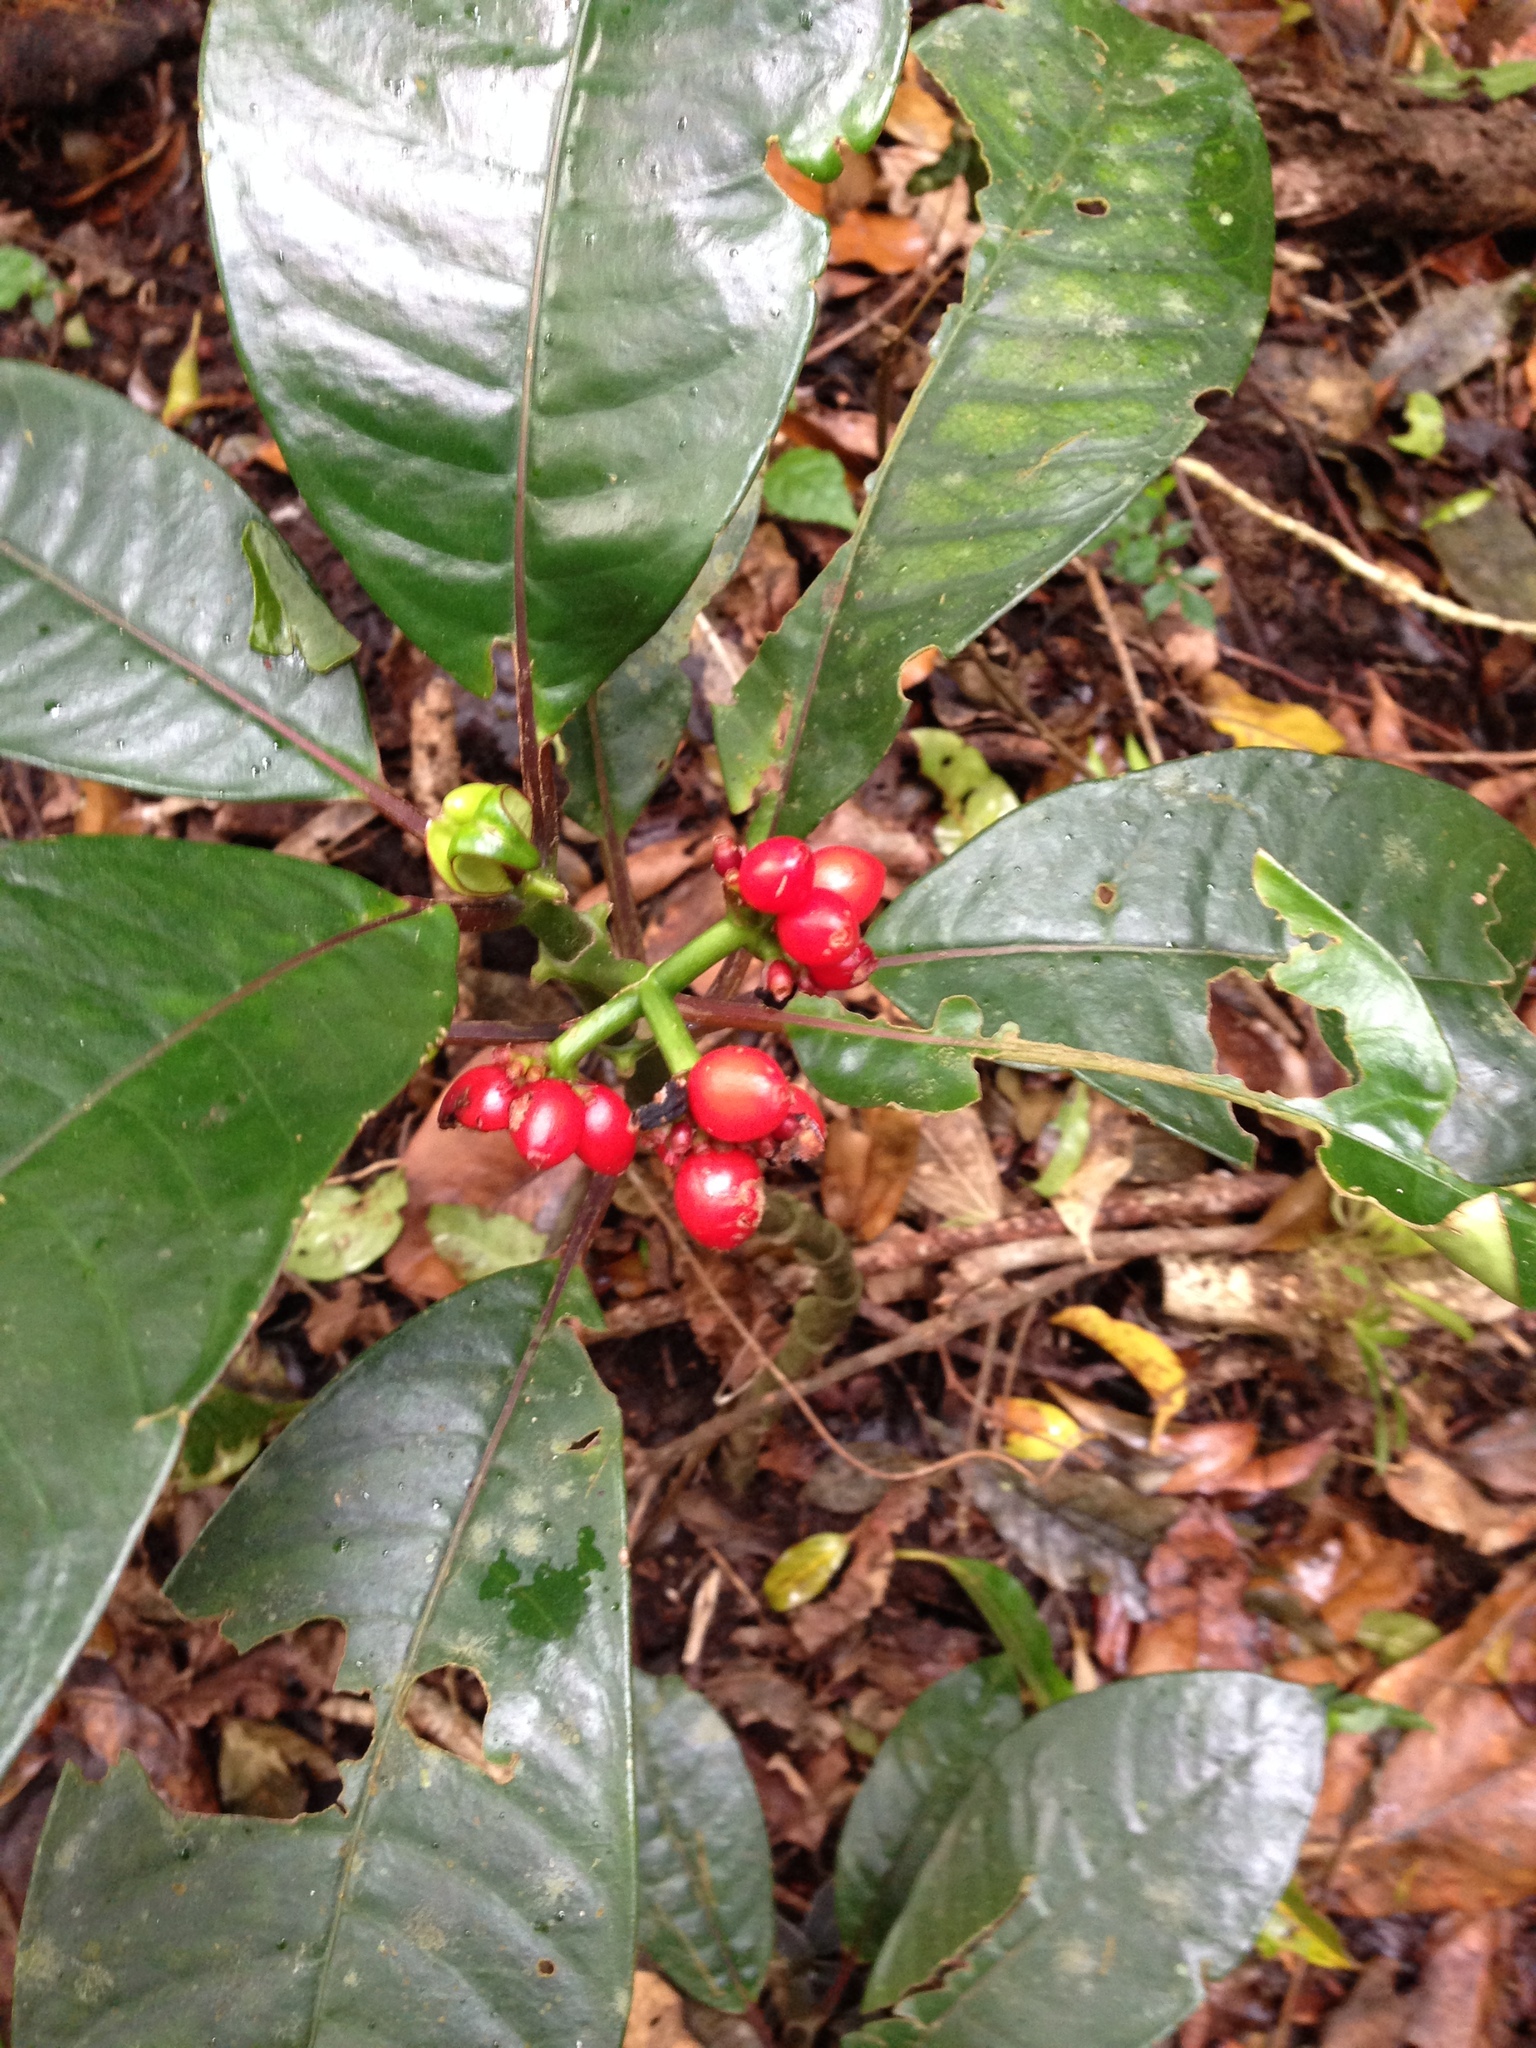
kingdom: Plantae
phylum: Tracheophyta
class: Magnoliopsida
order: Gentianales
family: Rubiaceae
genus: Notopleura
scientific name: Notopleura uliginosa
